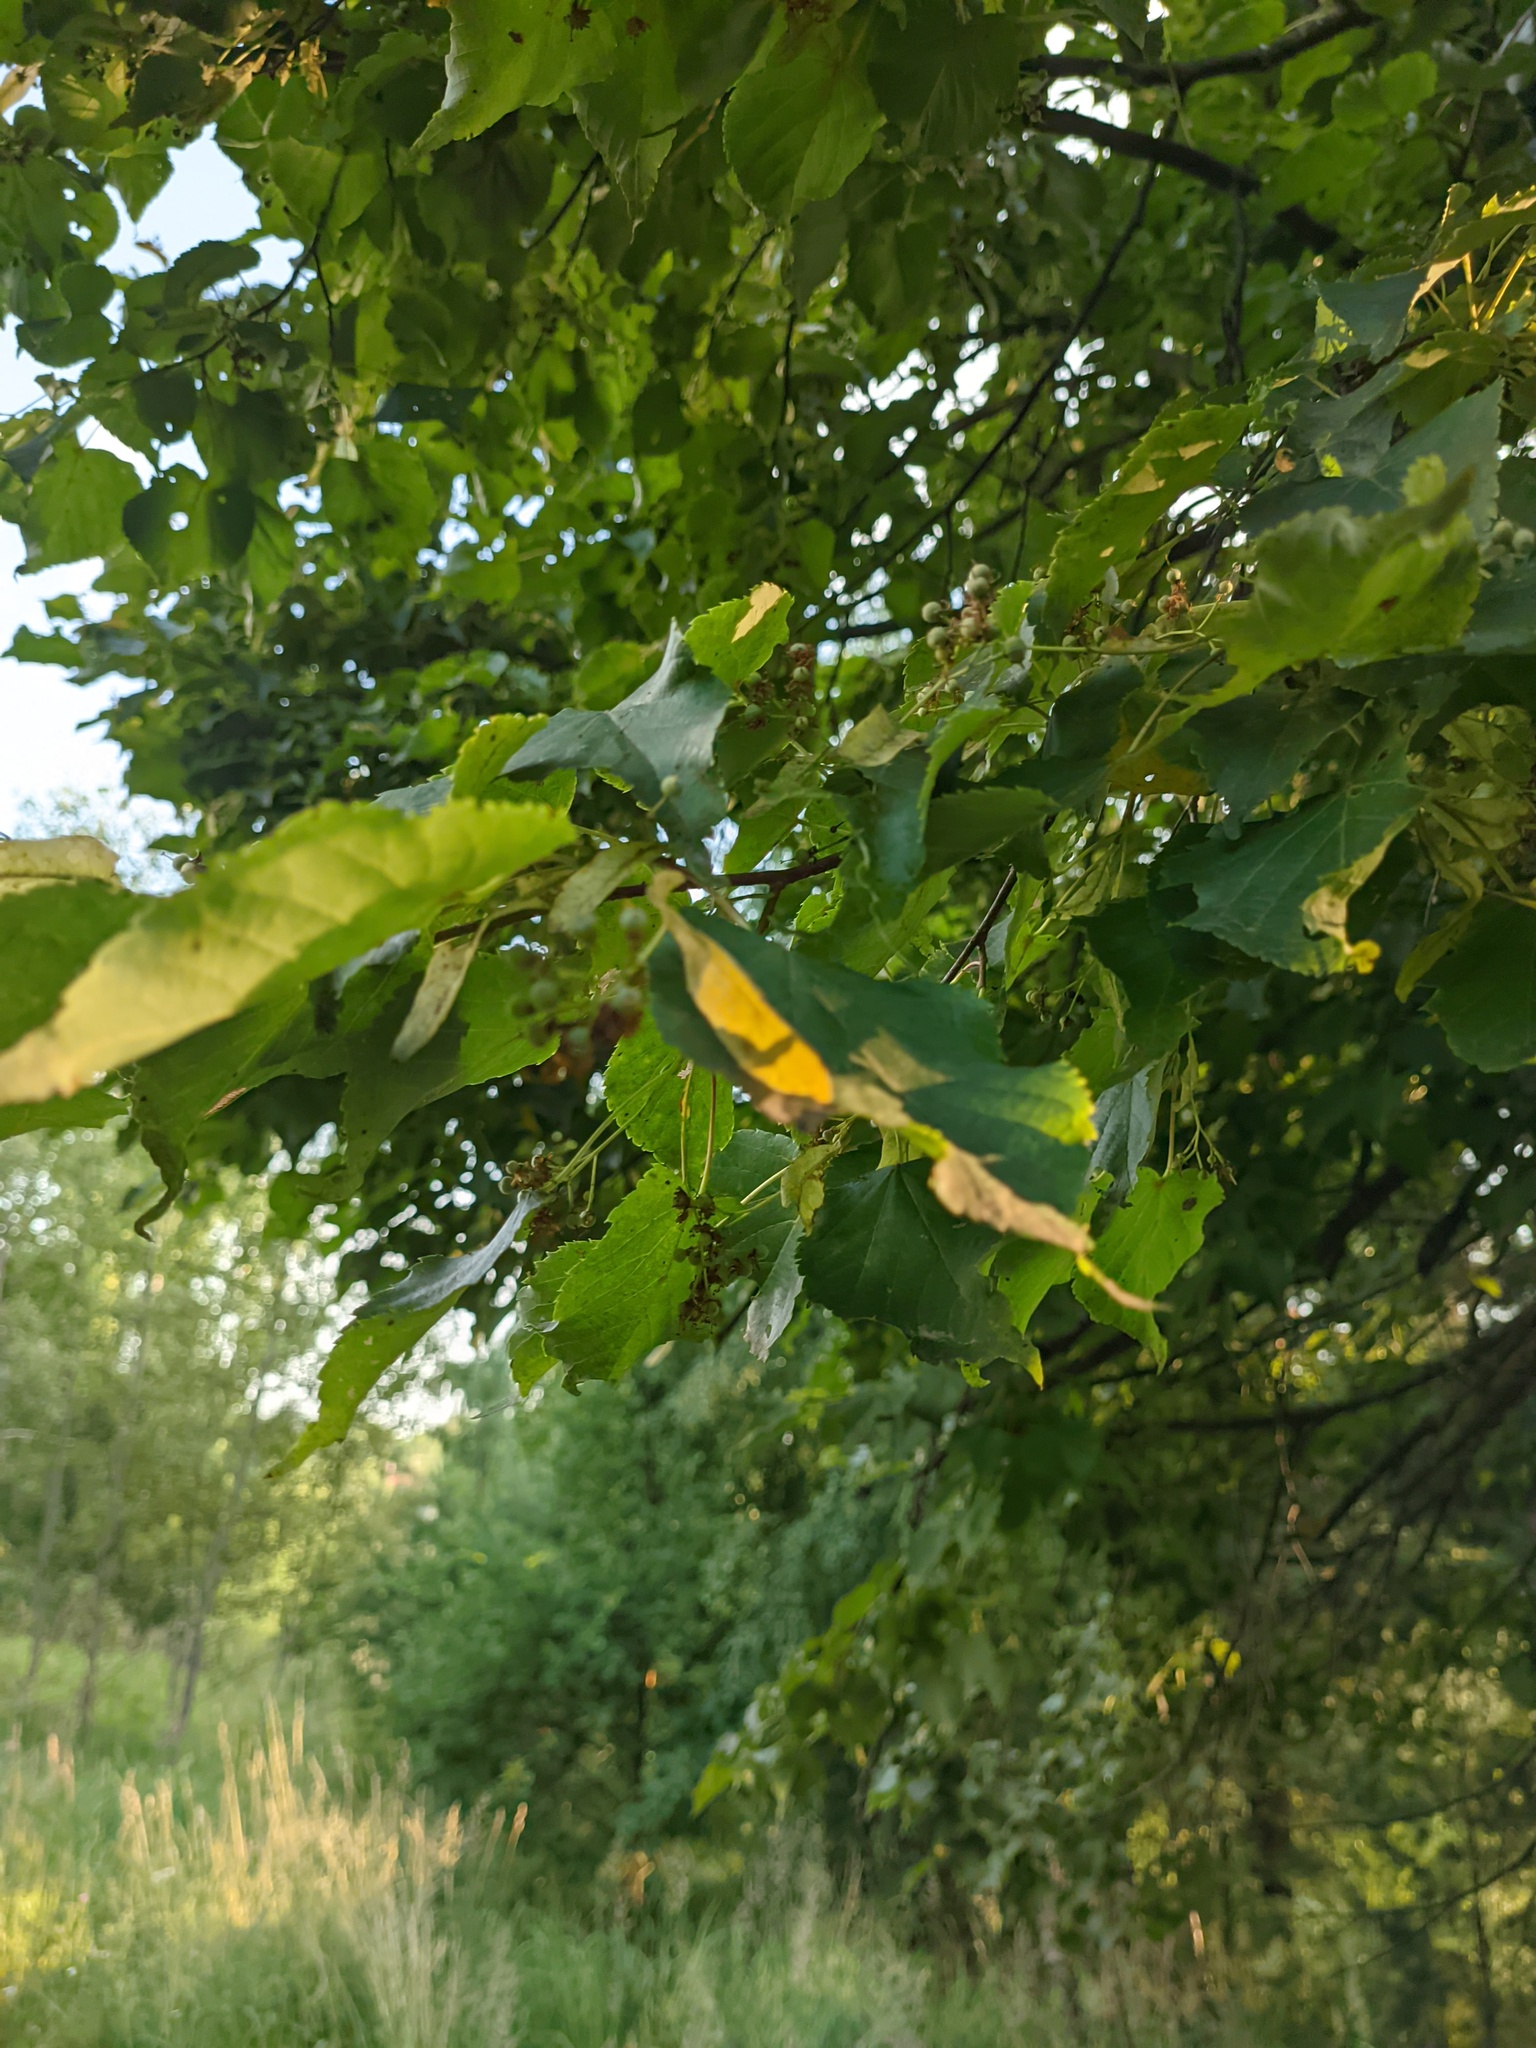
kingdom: Plantae
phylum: Tracheophyta
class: Magnoliopsida
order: Malvales
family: Malvaceae
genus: Tilia
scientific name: Tilia cordata
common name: Small-leaved lime
